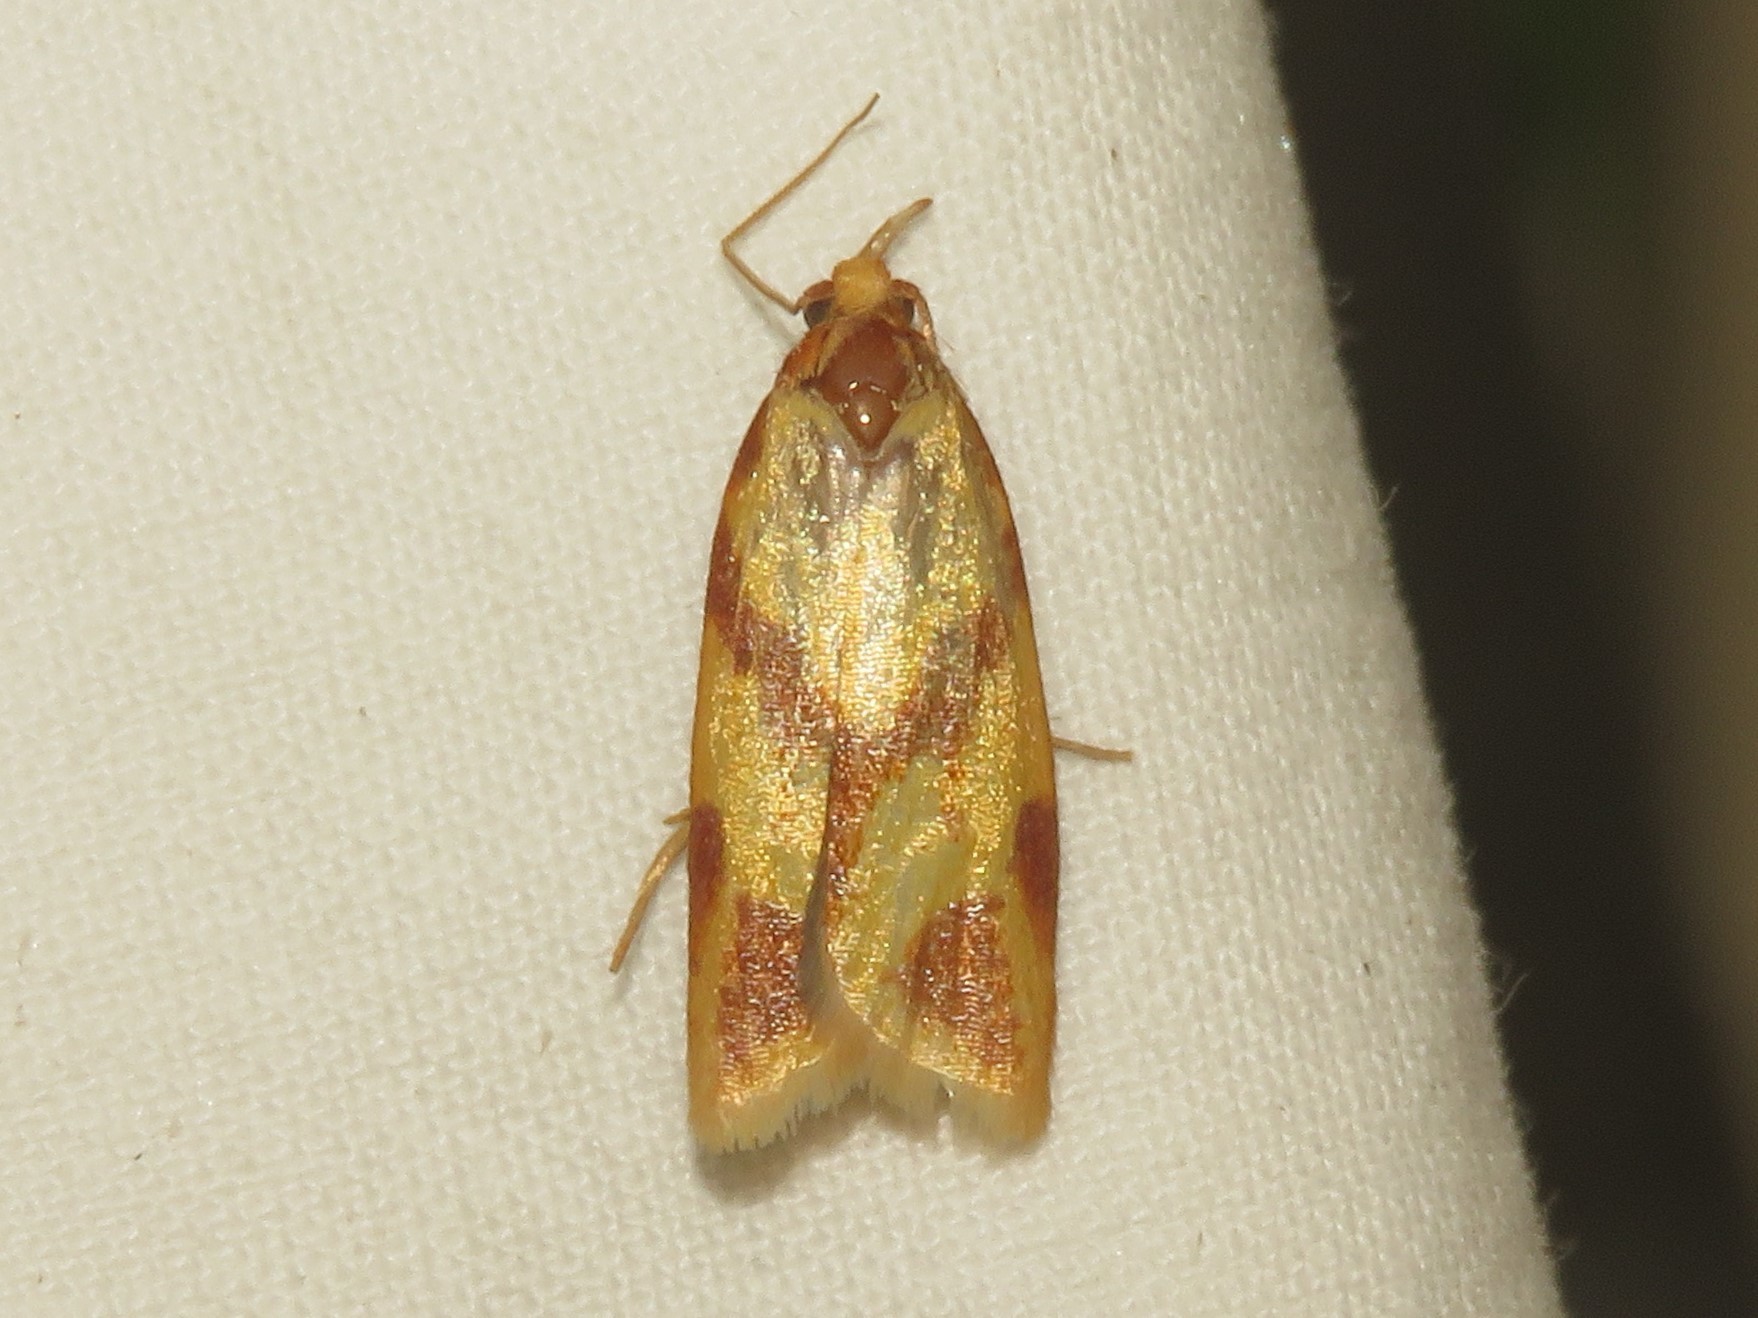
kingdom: Animalia
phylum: Arthropoda
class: Insecta
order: Lepidoptera
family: Tortricidae
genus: Sparganothis
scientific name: Sparganothis unifasciana
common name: One-lined sparganothis moth
